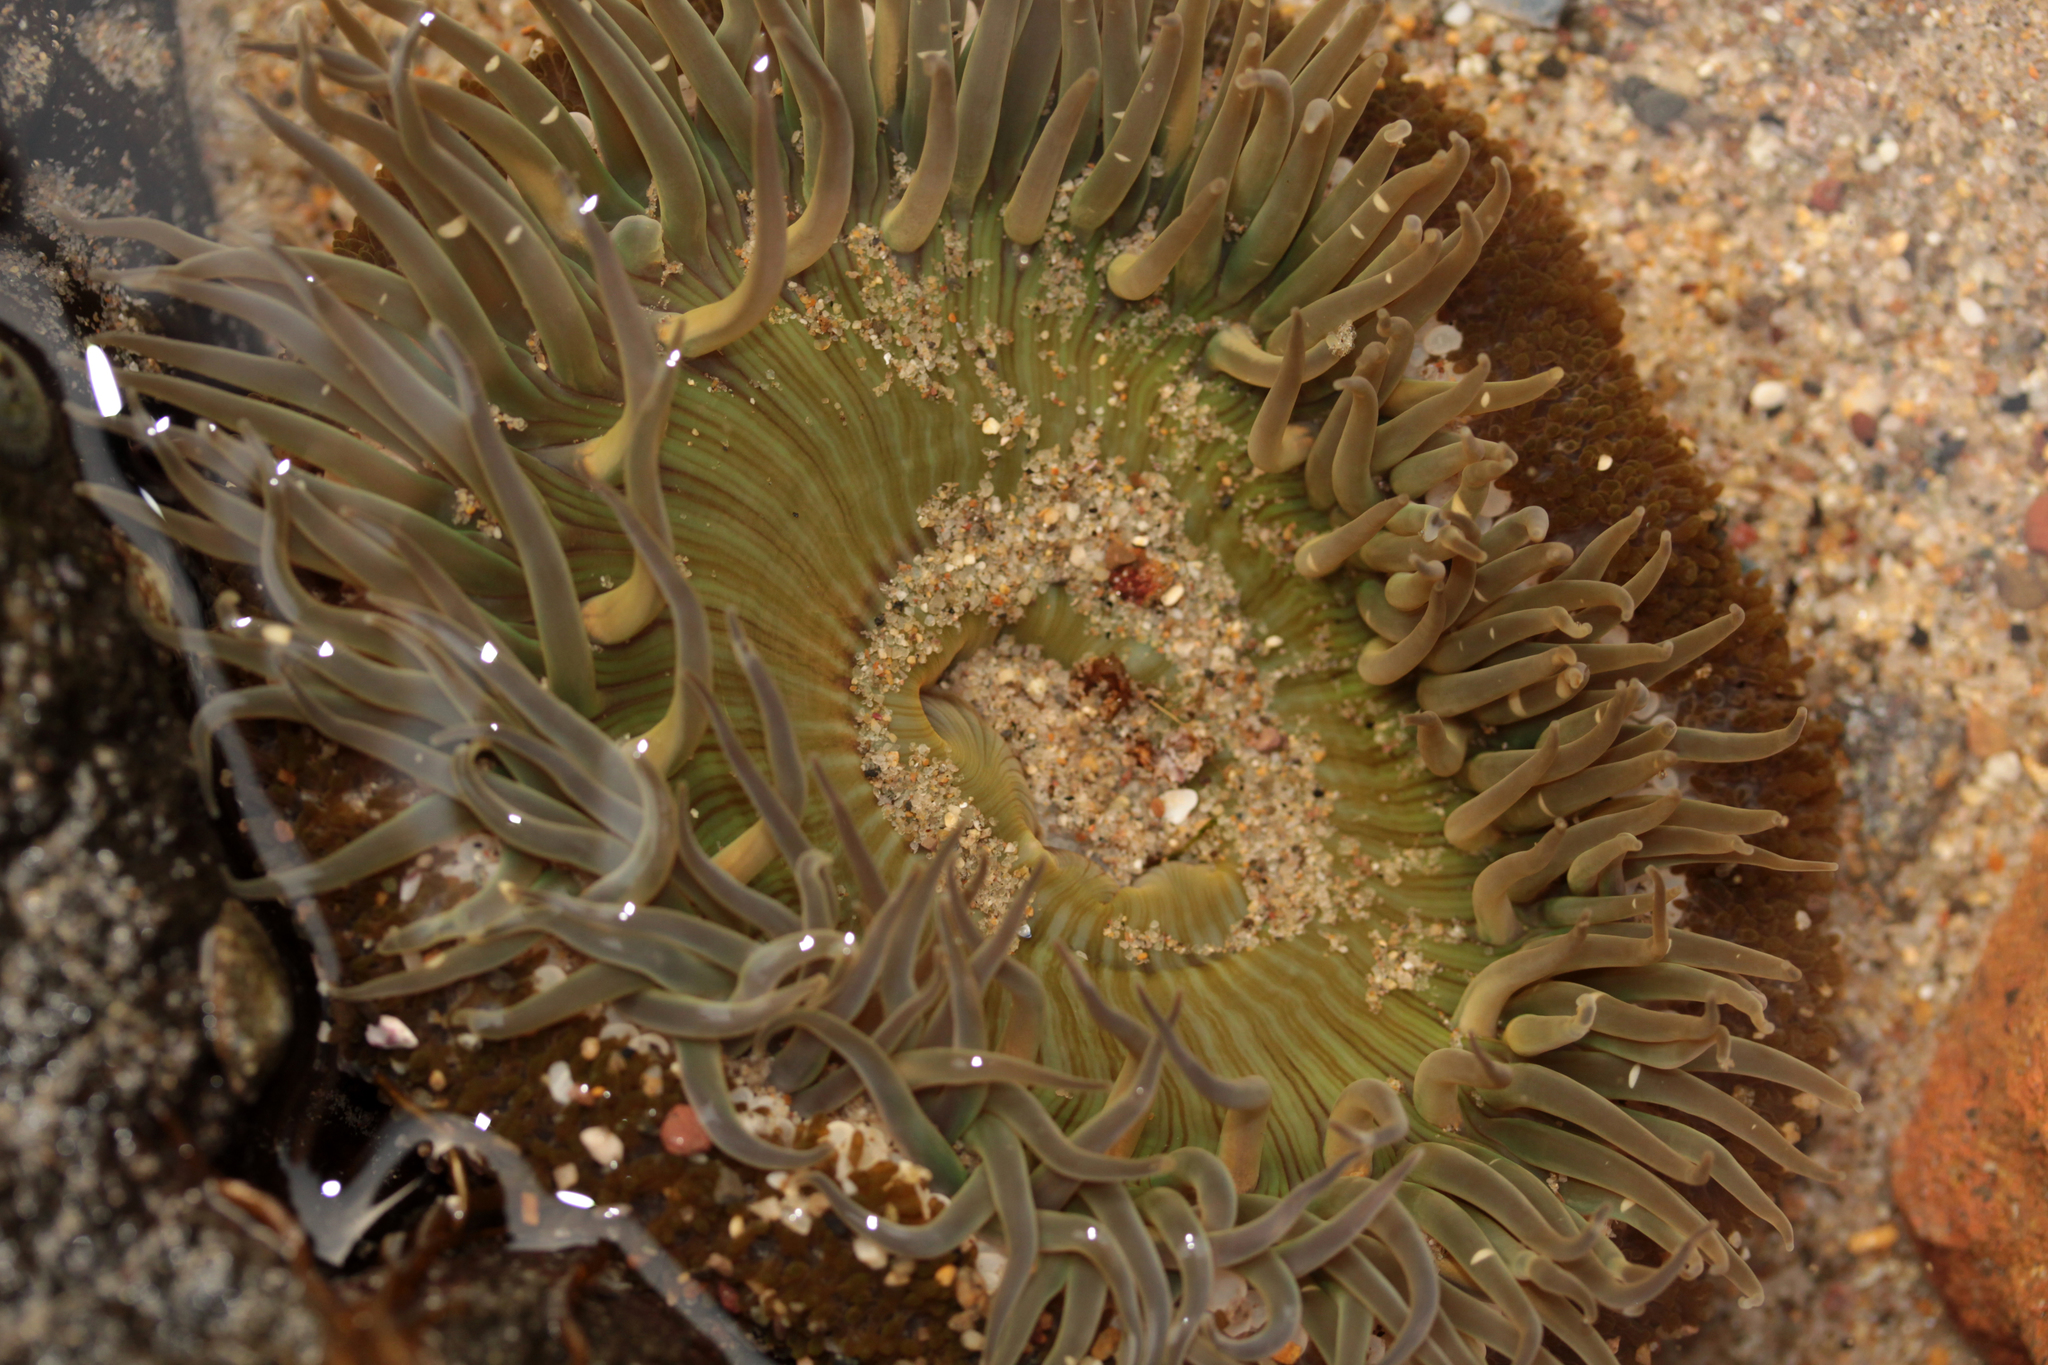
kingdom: Animalia
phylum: Cnidaria
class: Anthozoa
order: Actiniaria
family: Actiniidae
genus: Anthopleura
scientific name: Anthopleura sola
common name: Sun anemone
